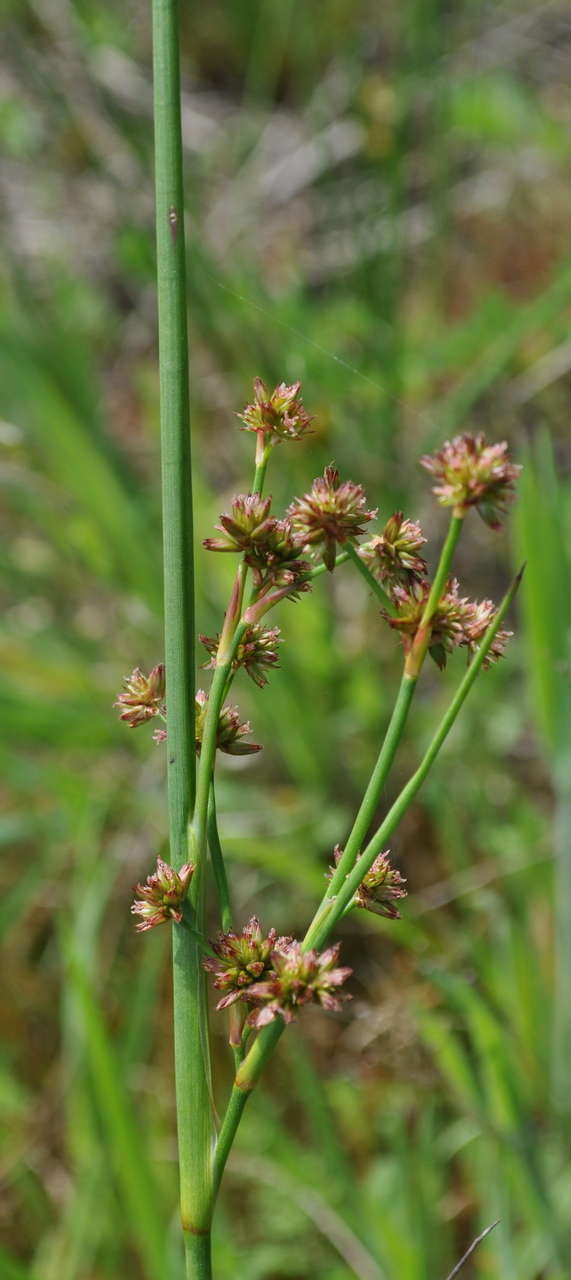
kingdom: Plantae
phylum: Tracheophyta
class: Liliopsida
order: Poales
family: Juncaceae
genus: Juncus
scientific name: Juncus holoschoenus
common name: Joint-leaf rush
